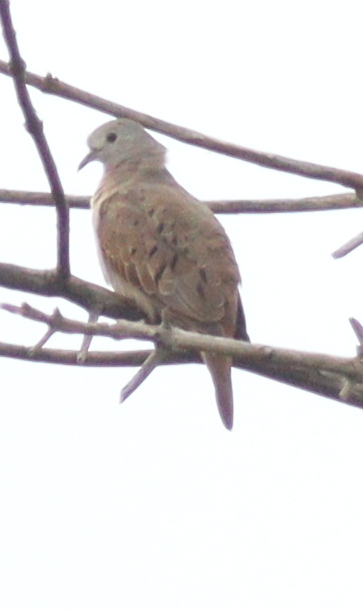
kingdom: Animalia
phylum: Chordata
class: Aves
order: Columbiformes
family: Columbidae
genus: Columbina
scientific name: Columbina talpacoti
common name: Ruddy ground dove
